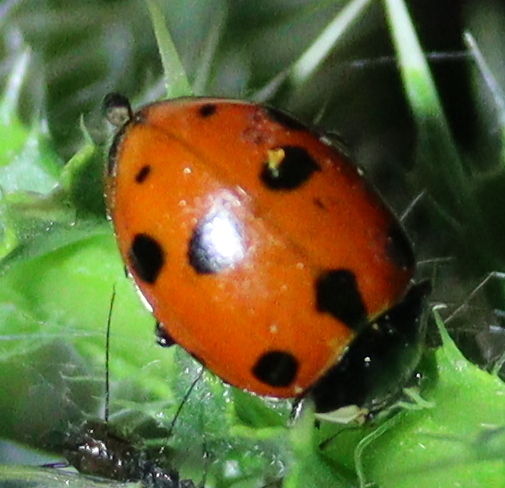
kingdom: Animalia
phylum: Arthropoda
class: Insecta
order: Coleoptera
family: Coccinellidae
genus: Ceratomegilla
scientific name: Ceratomegilla undecimnotata
